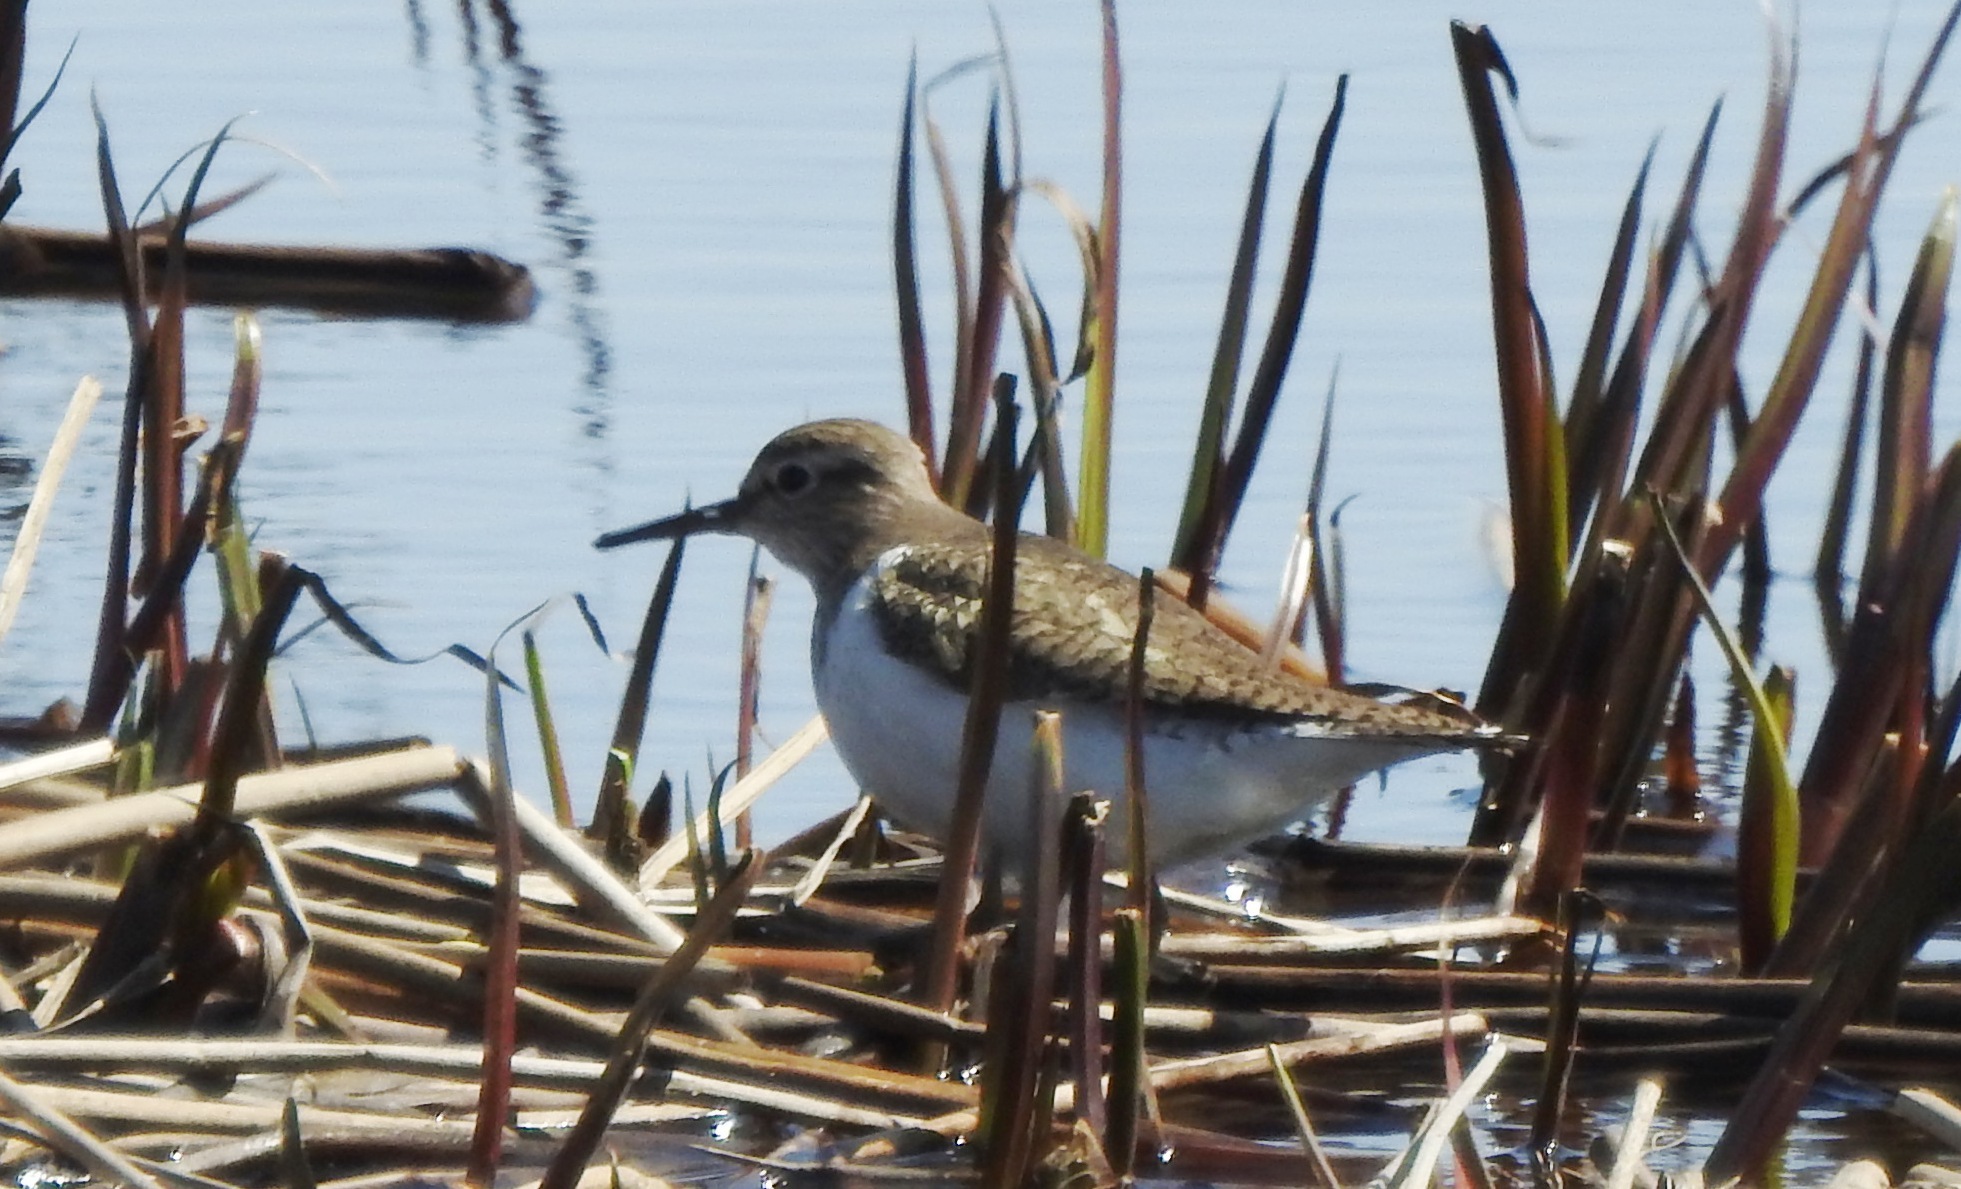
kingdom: Animalia
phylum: Chordata
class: Aves
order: Charadriiformes
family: Scolopacidae
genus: Actitis
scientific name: Actitis hypoleucos
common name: Common sandpiper
